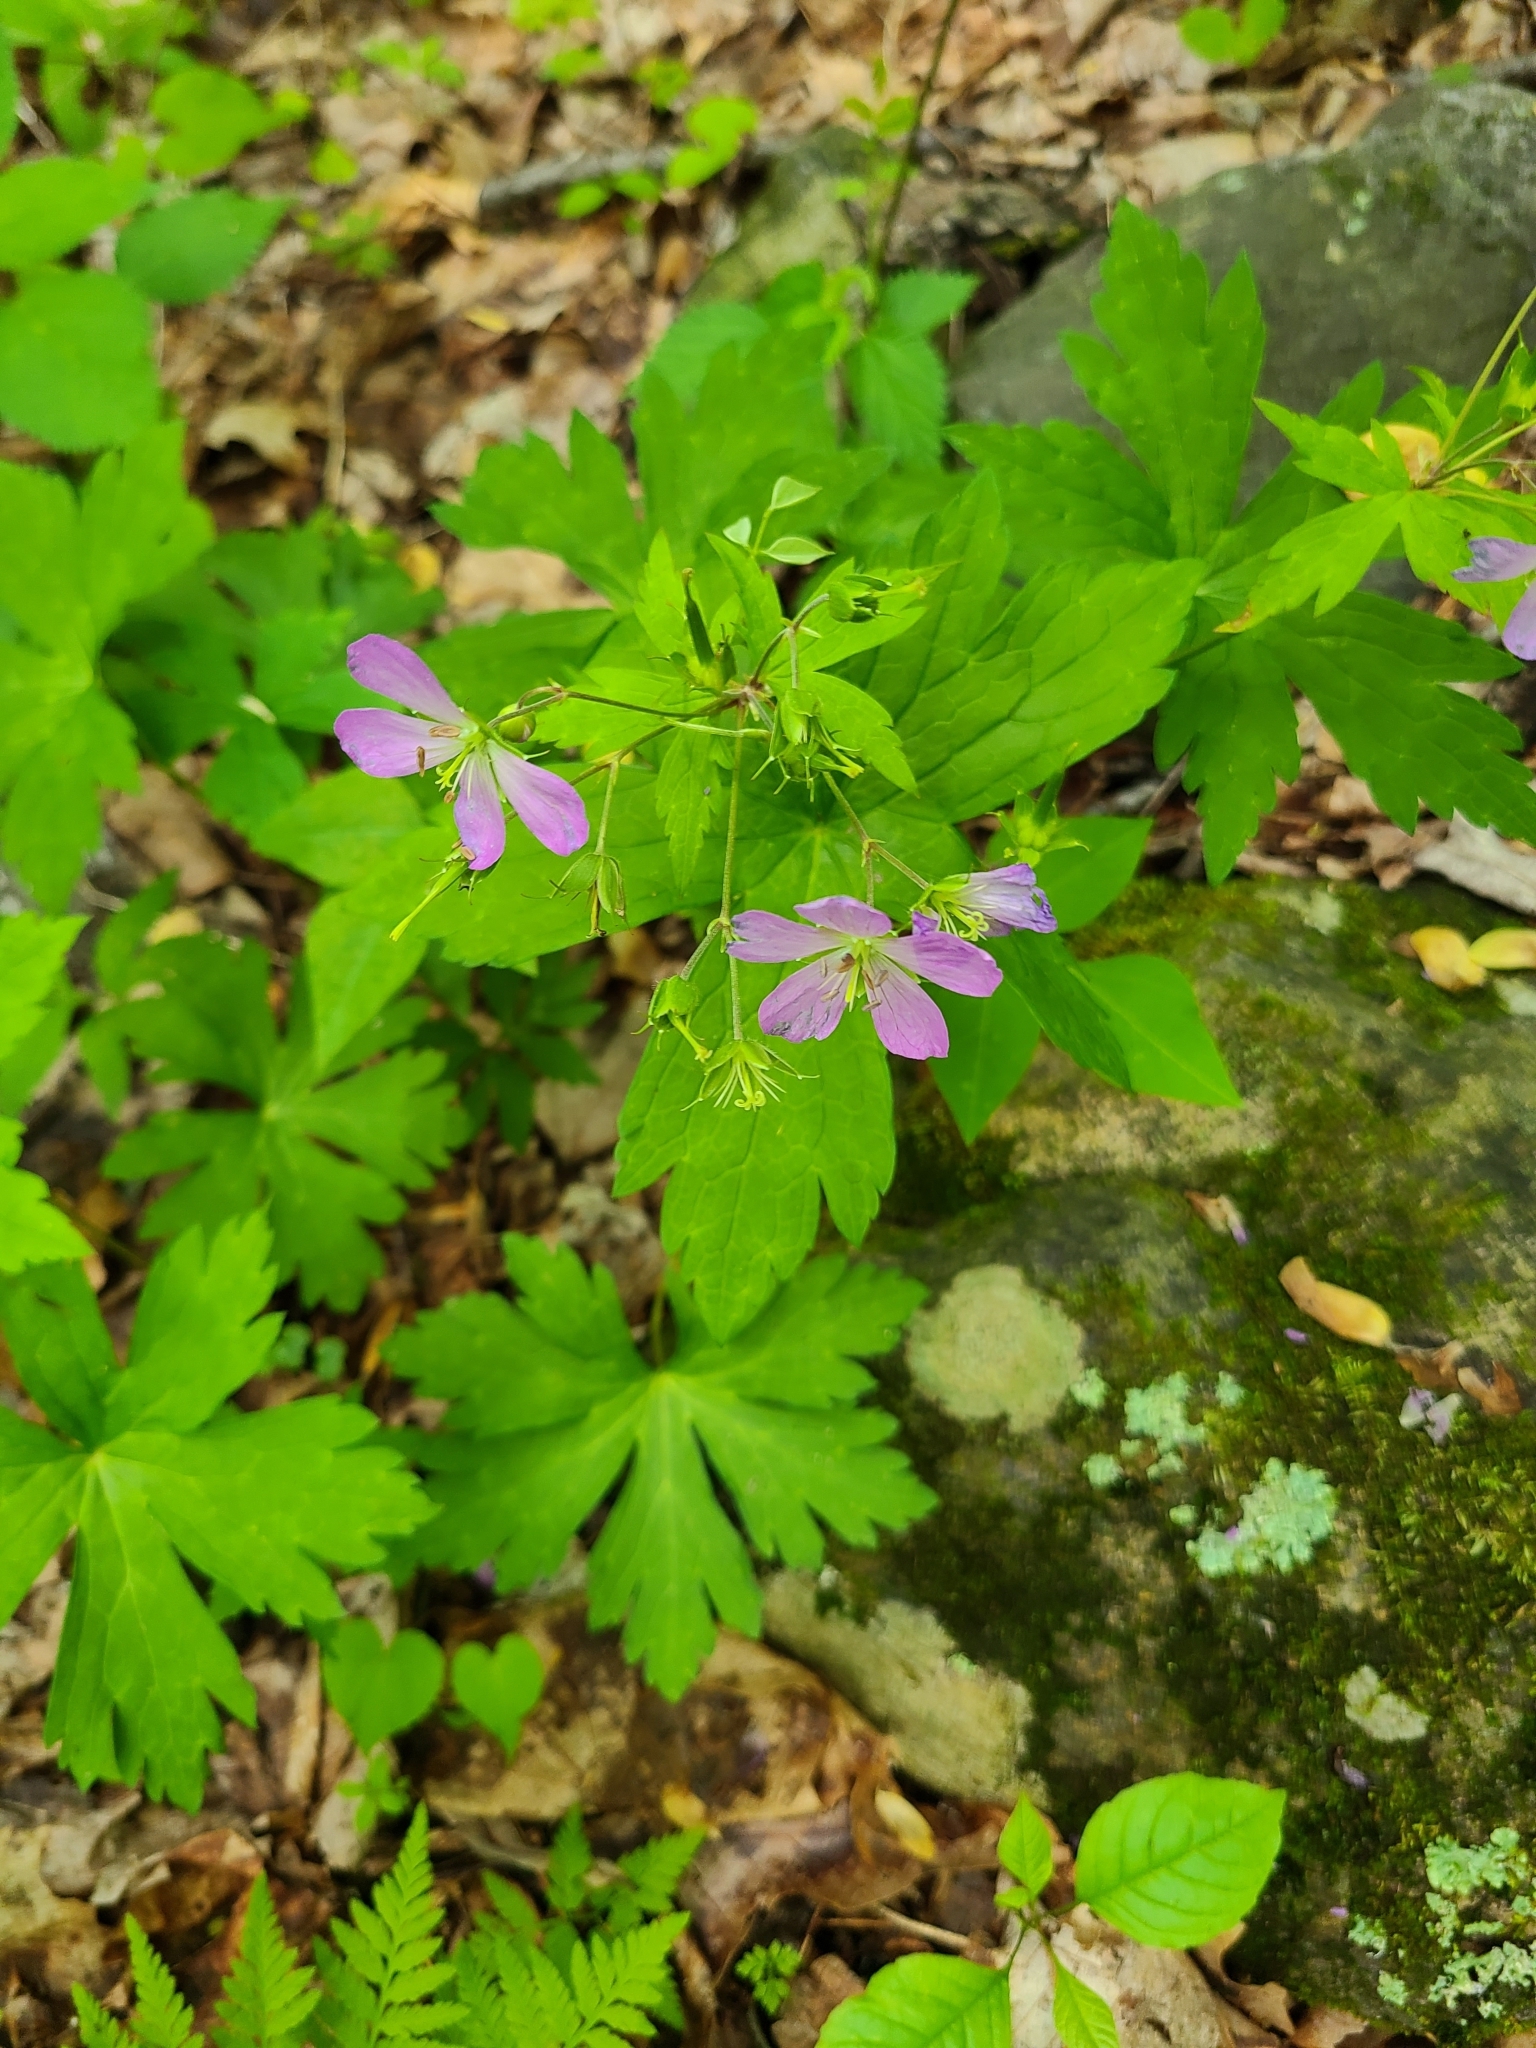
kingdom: Plantae
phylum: Tracheophyta
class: Magnoliopsida
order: Geraniales
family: Geraniaceae
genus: Geranium
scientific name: Geranium maculatum
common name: Spotted geranium
